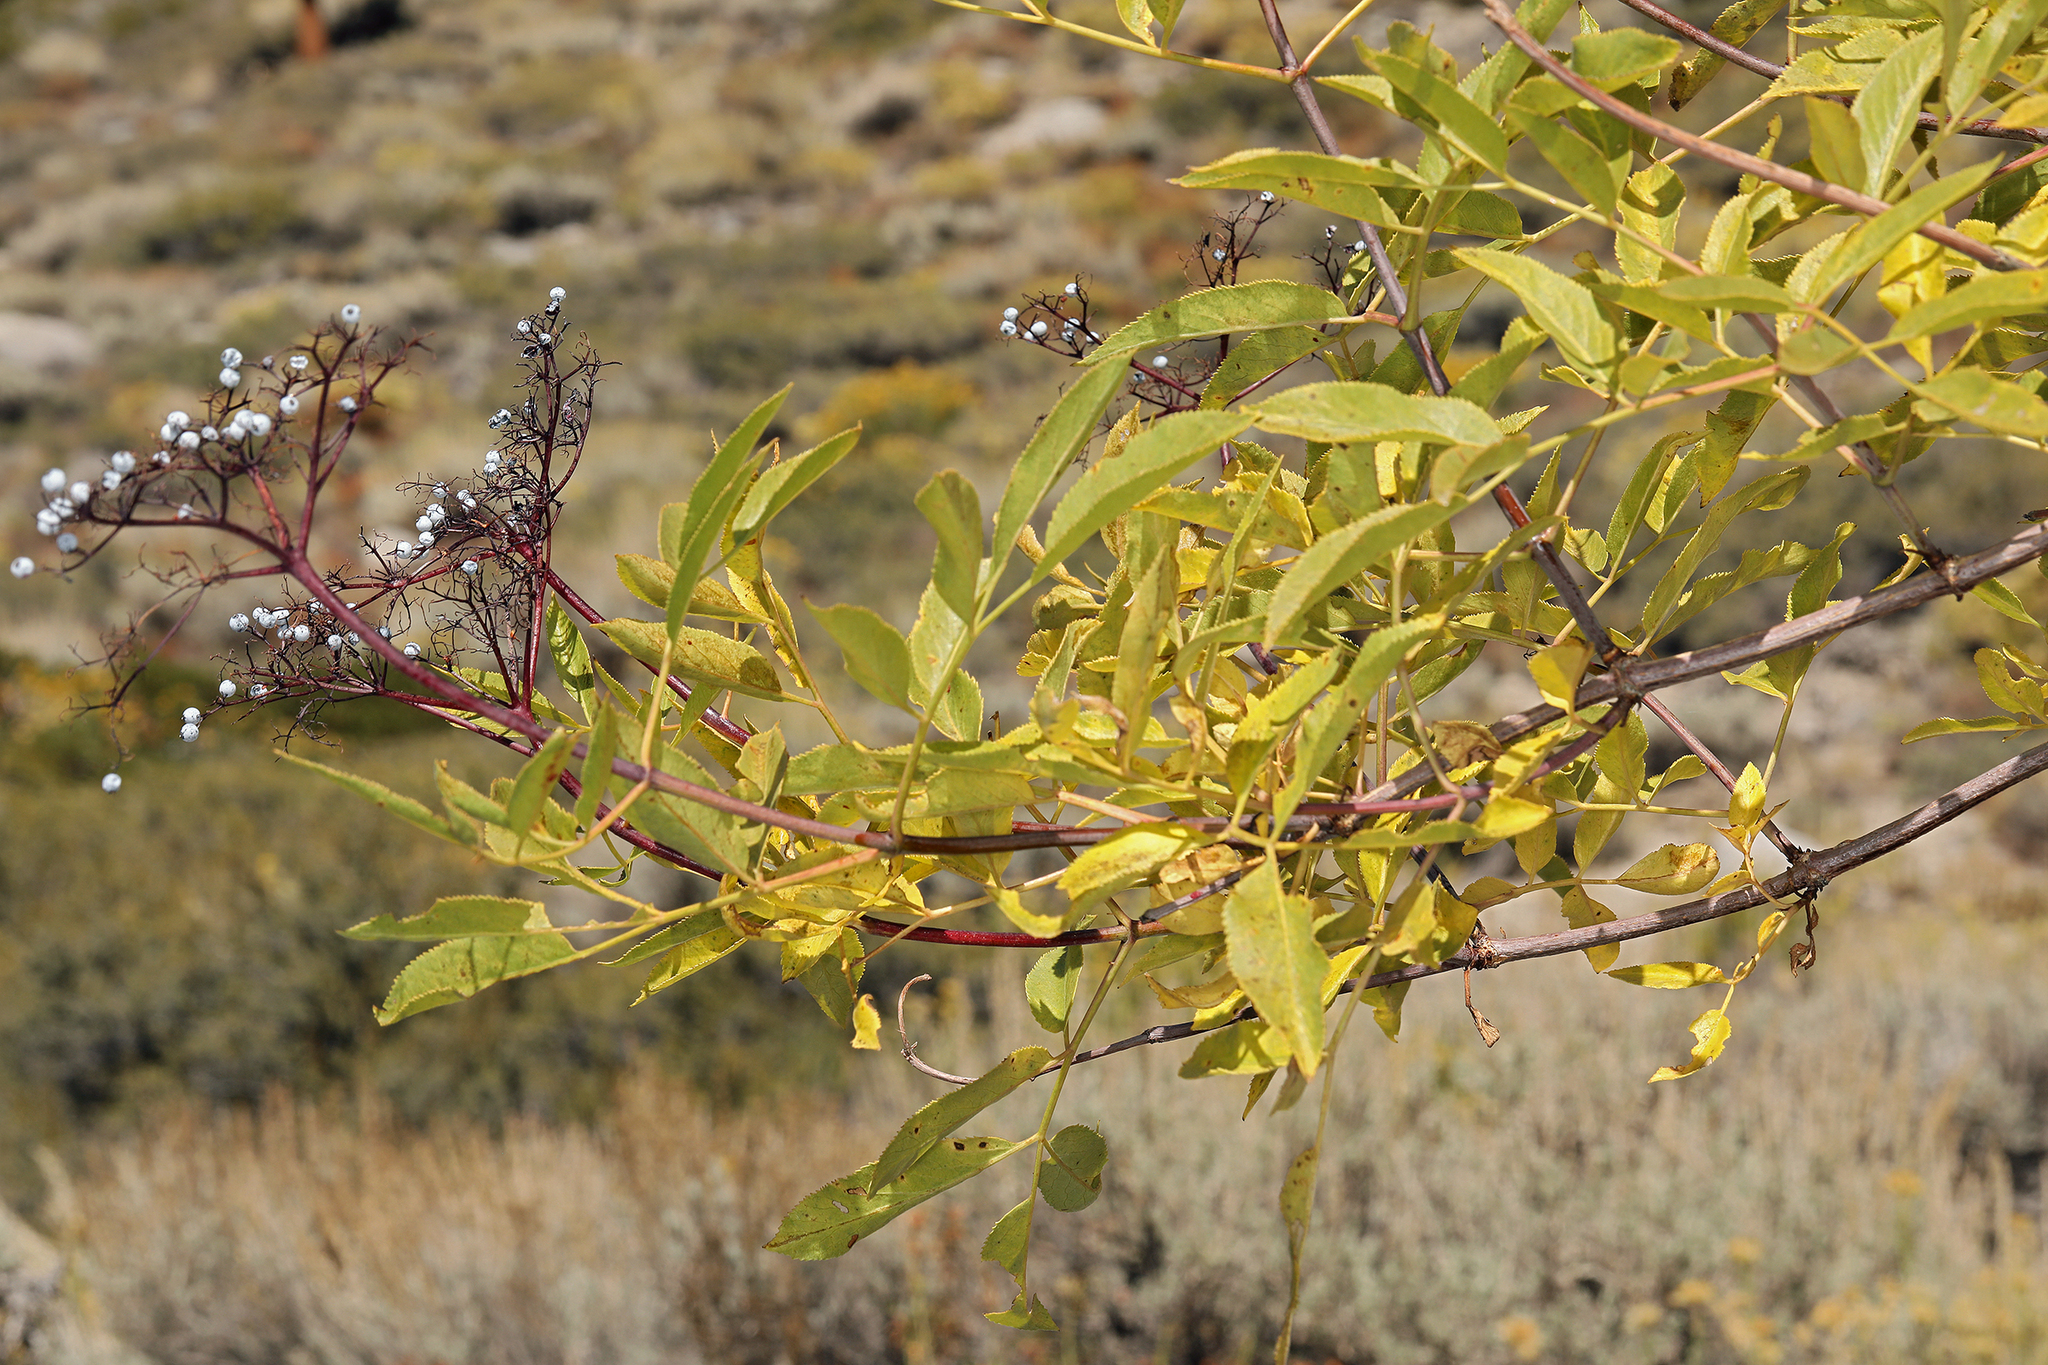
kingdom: Plantae
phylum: Tracheophyta
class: Magnoliopsida
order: Dipsacales
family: Viburnaceae
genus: Sambucus
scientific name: Sambucus cerulea
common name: Blue elder
